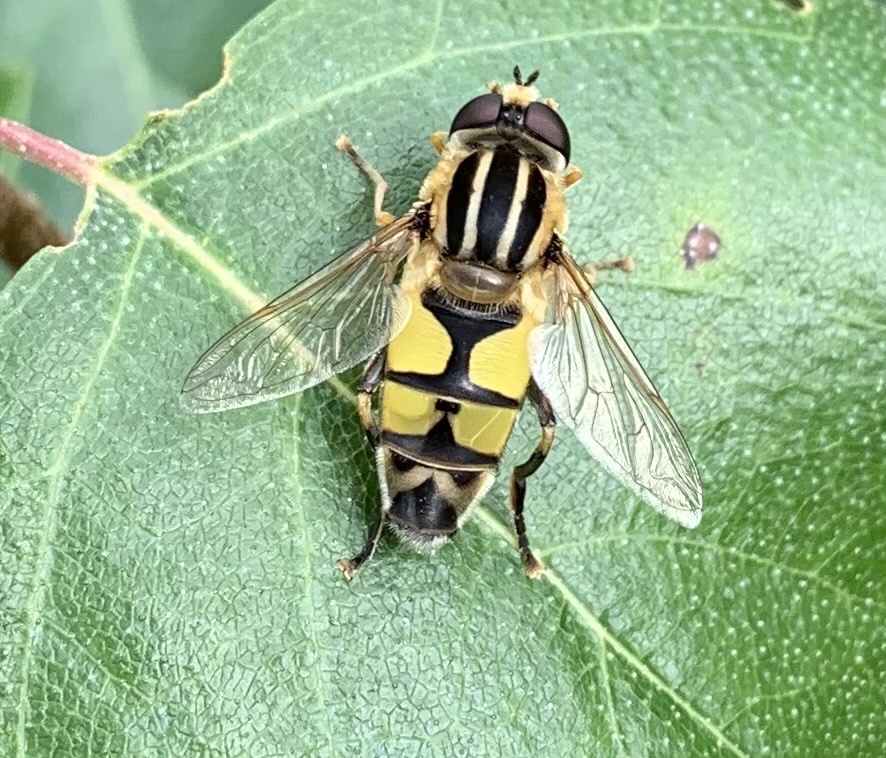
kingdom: Animalia
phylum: Arthropoda
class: Insecta
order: Diptera
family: Syrphidae
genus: Helophilus
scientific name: Helophilus trivittatus
